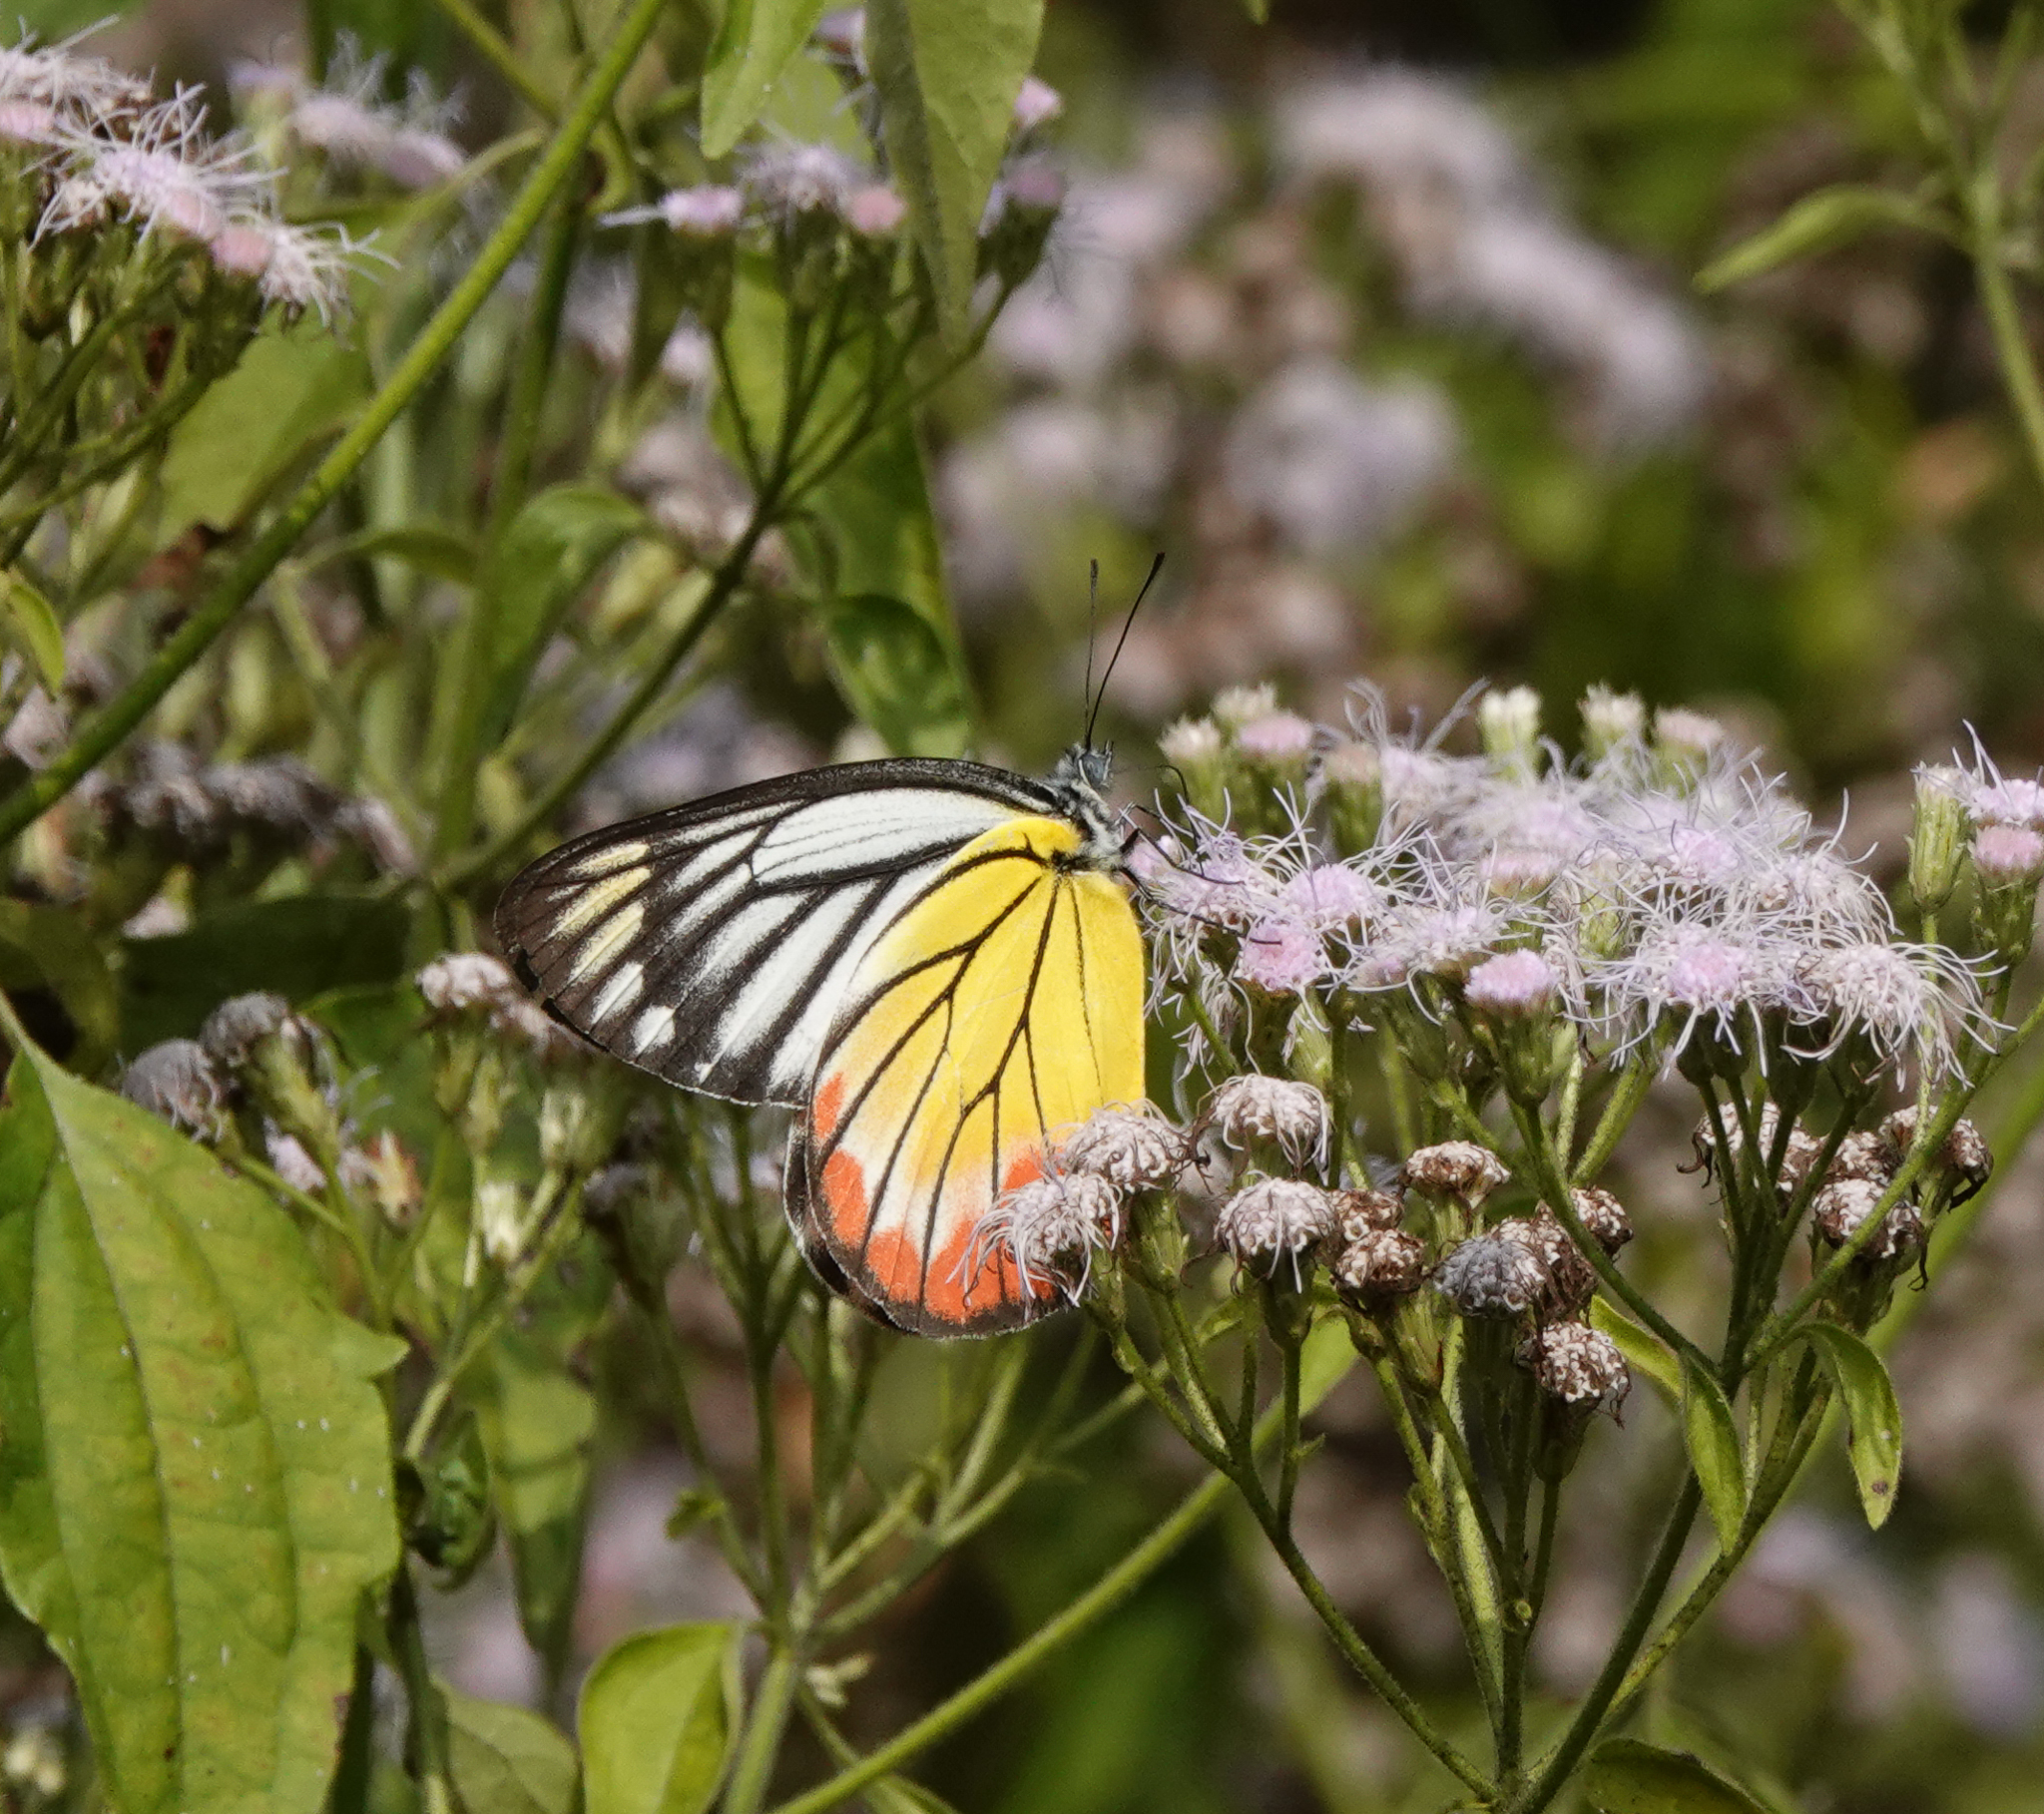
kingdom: Animalia
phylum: Arthropoda
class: Insecta
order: Lepidoptera
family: Pieridae
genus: Delias
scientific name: Delias hyparete
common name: Painted jezebel
